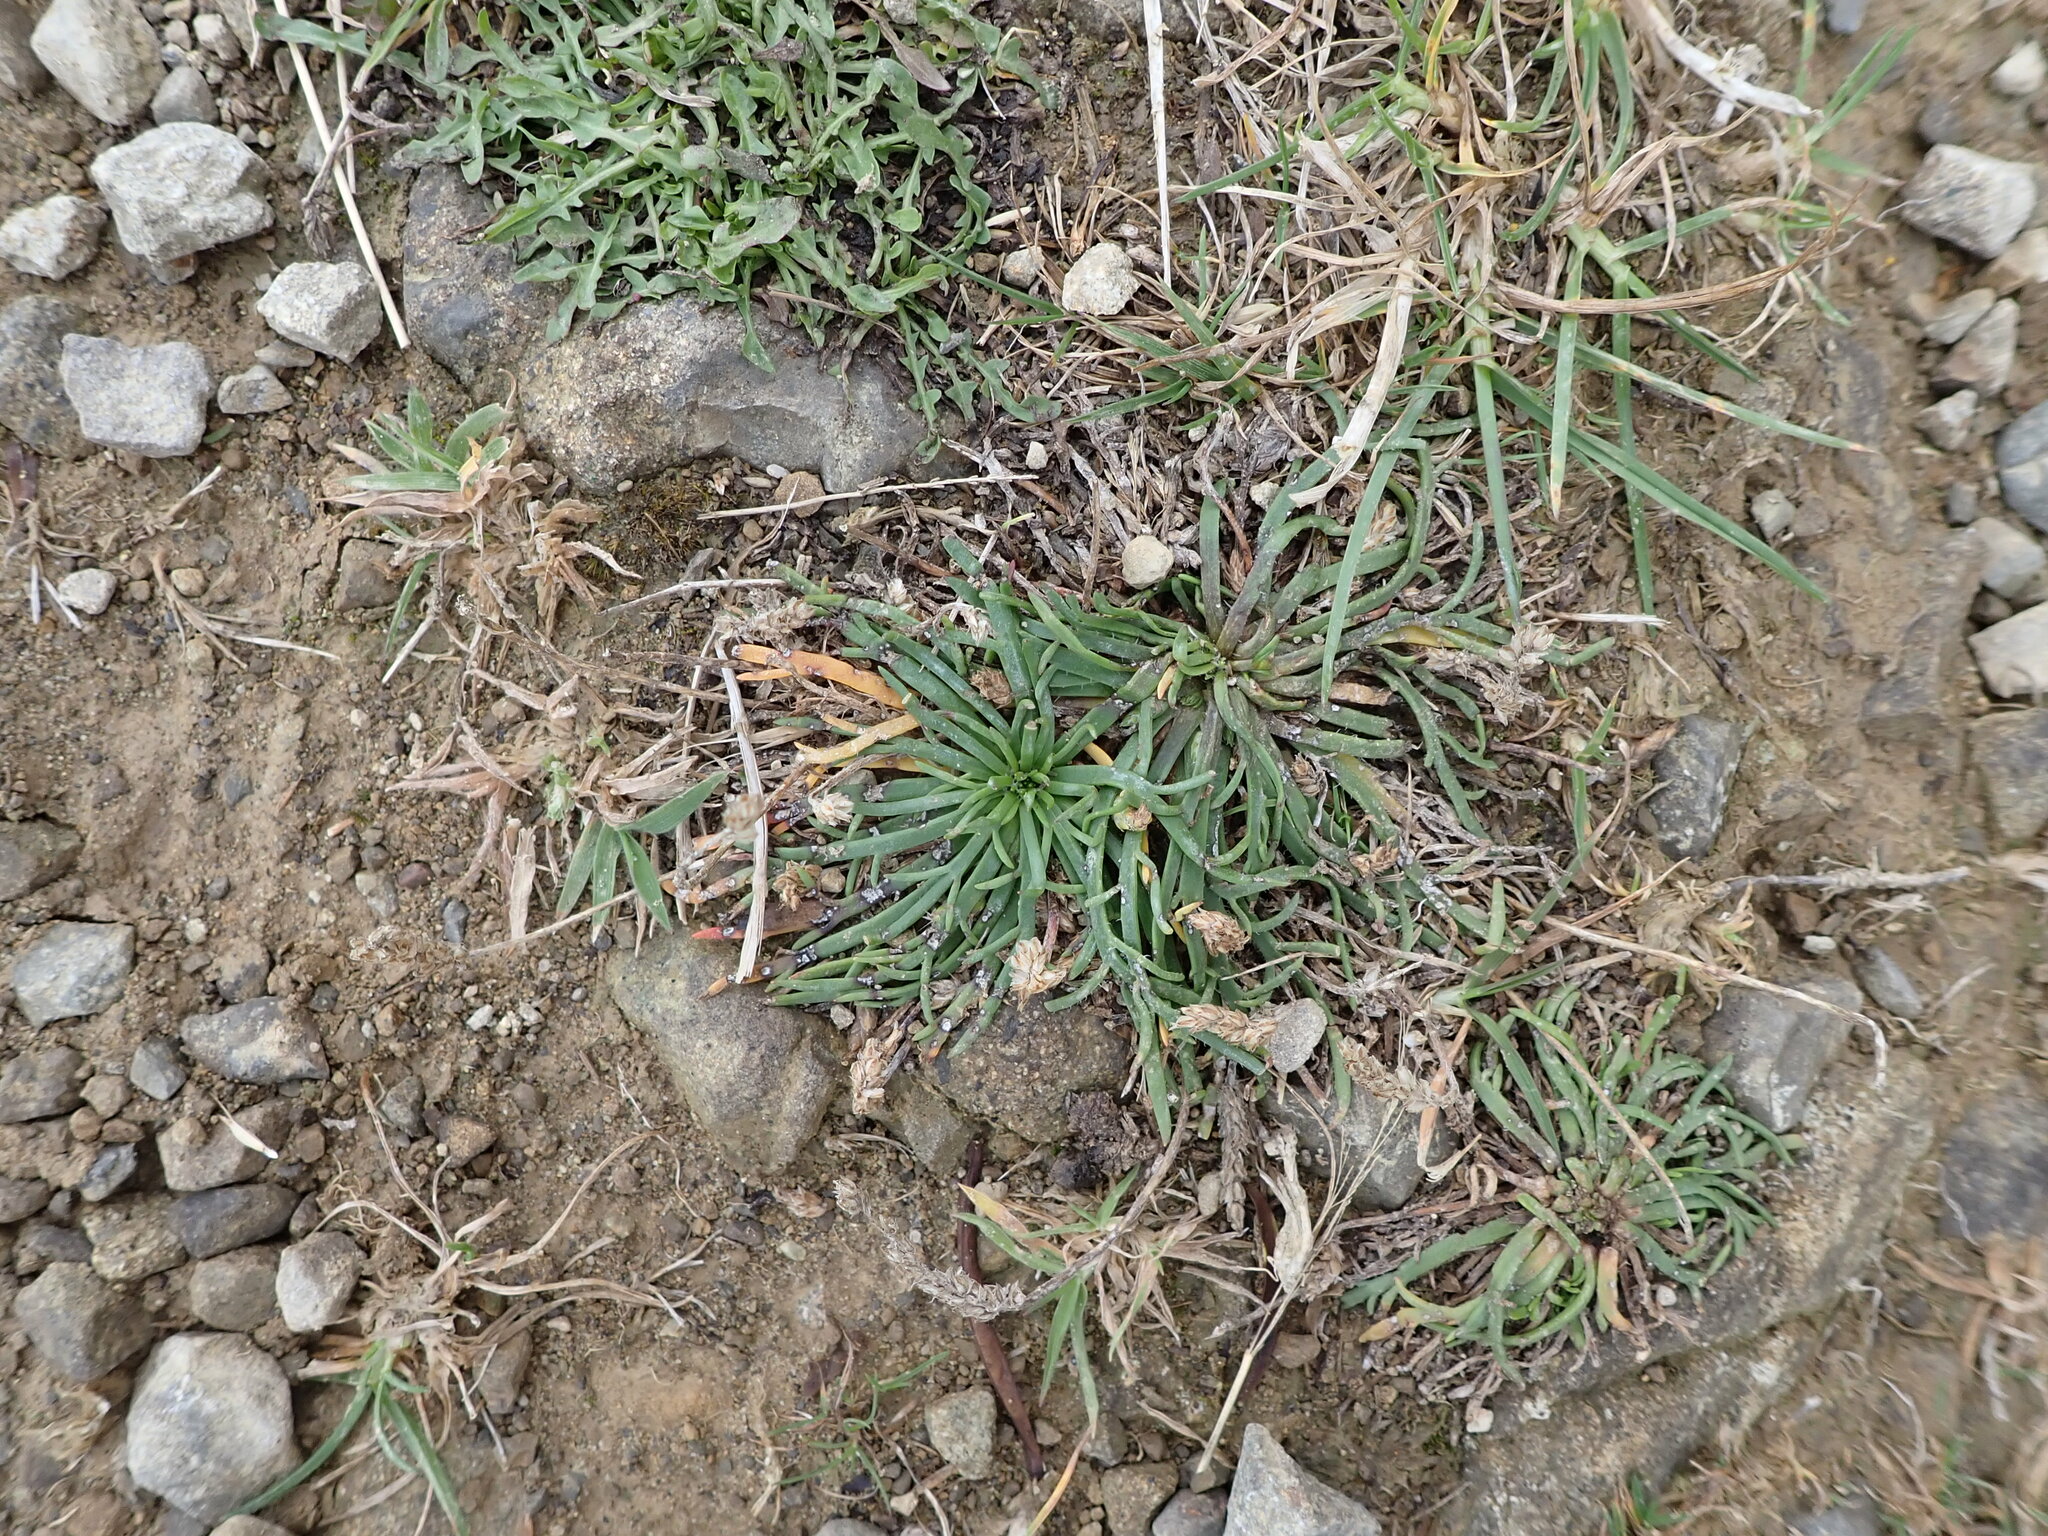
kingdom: Plantae
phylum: Tracheophyta
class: Magnoliopsida
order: Lamiales
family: Plantaginaceae
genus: Plantago
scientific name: Plantago coronopus
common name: Buck's-horn plantain
